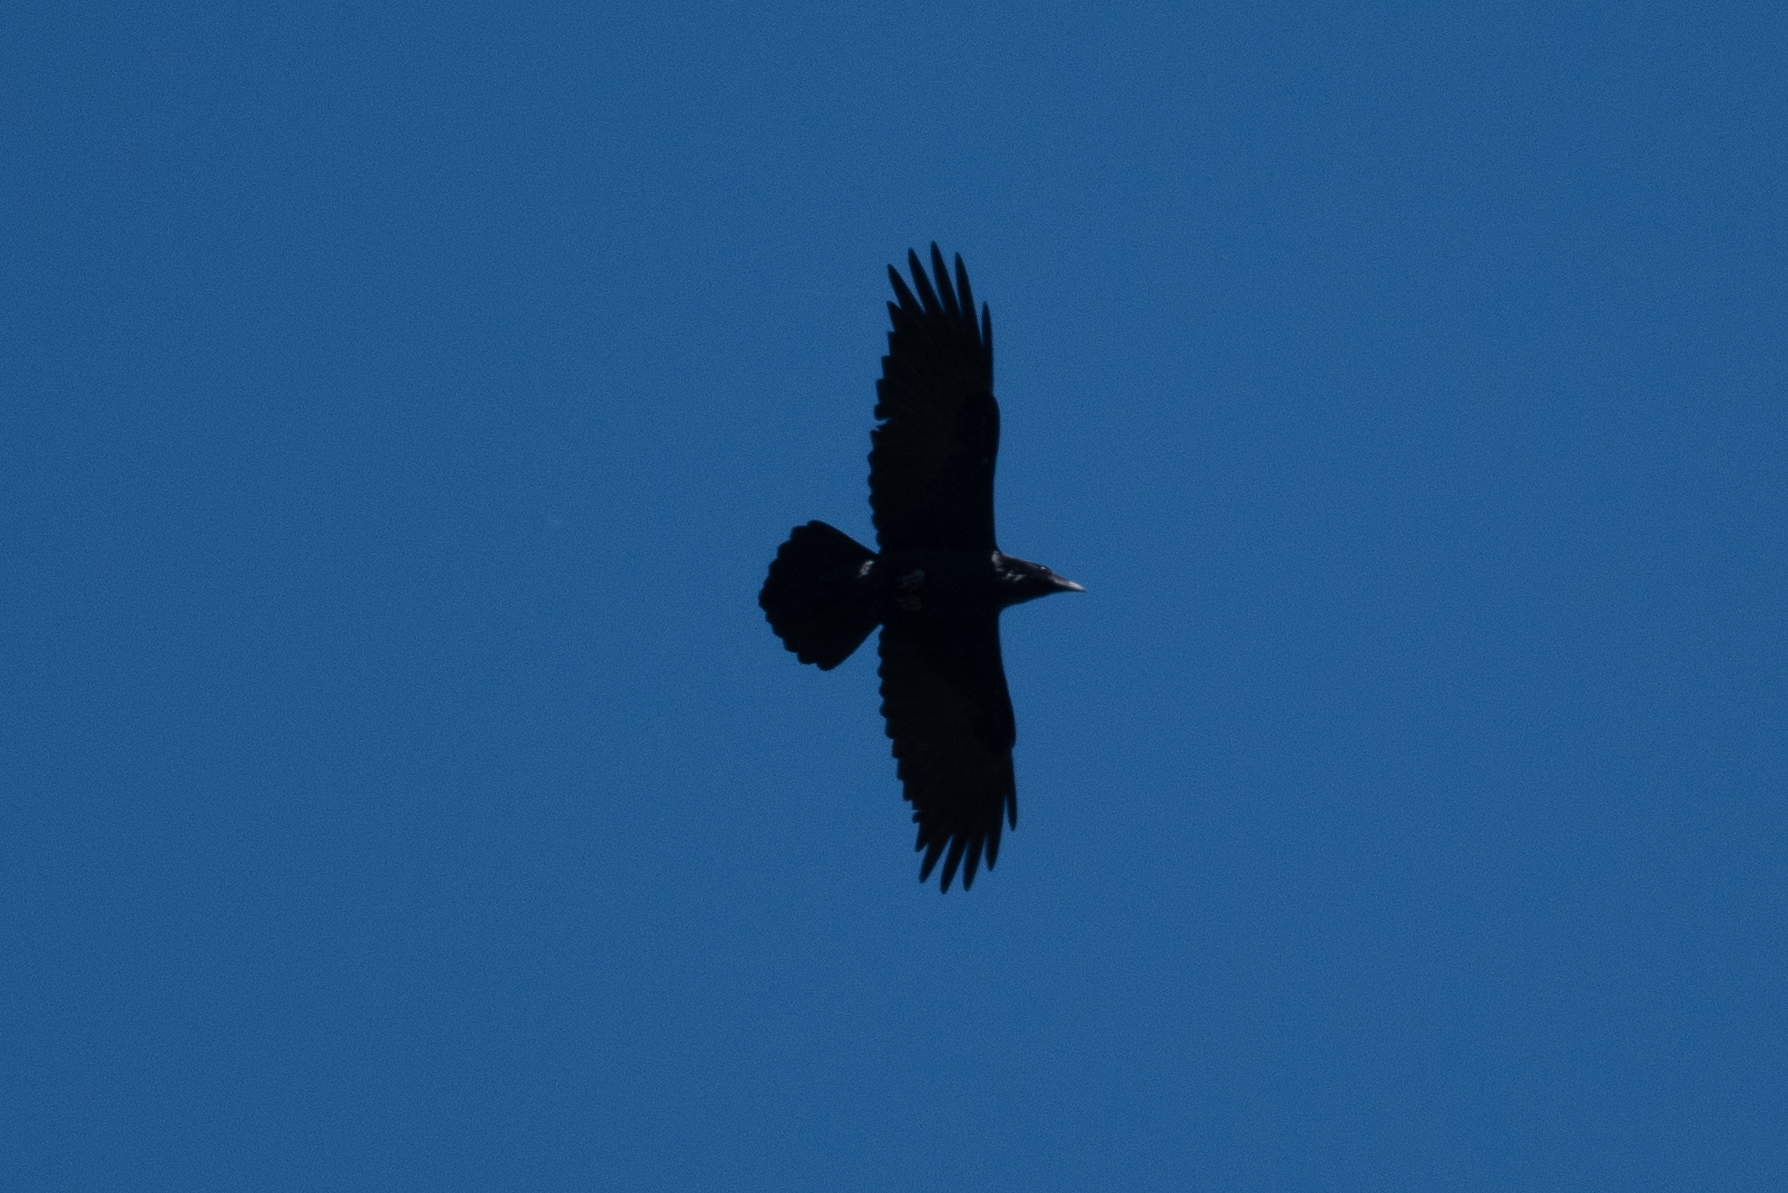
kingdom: Animalia
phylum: Chordata
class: Aves
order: Passeriformes
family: Corvidae
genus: Corvus
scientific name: Corvus corax
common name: Common raven
